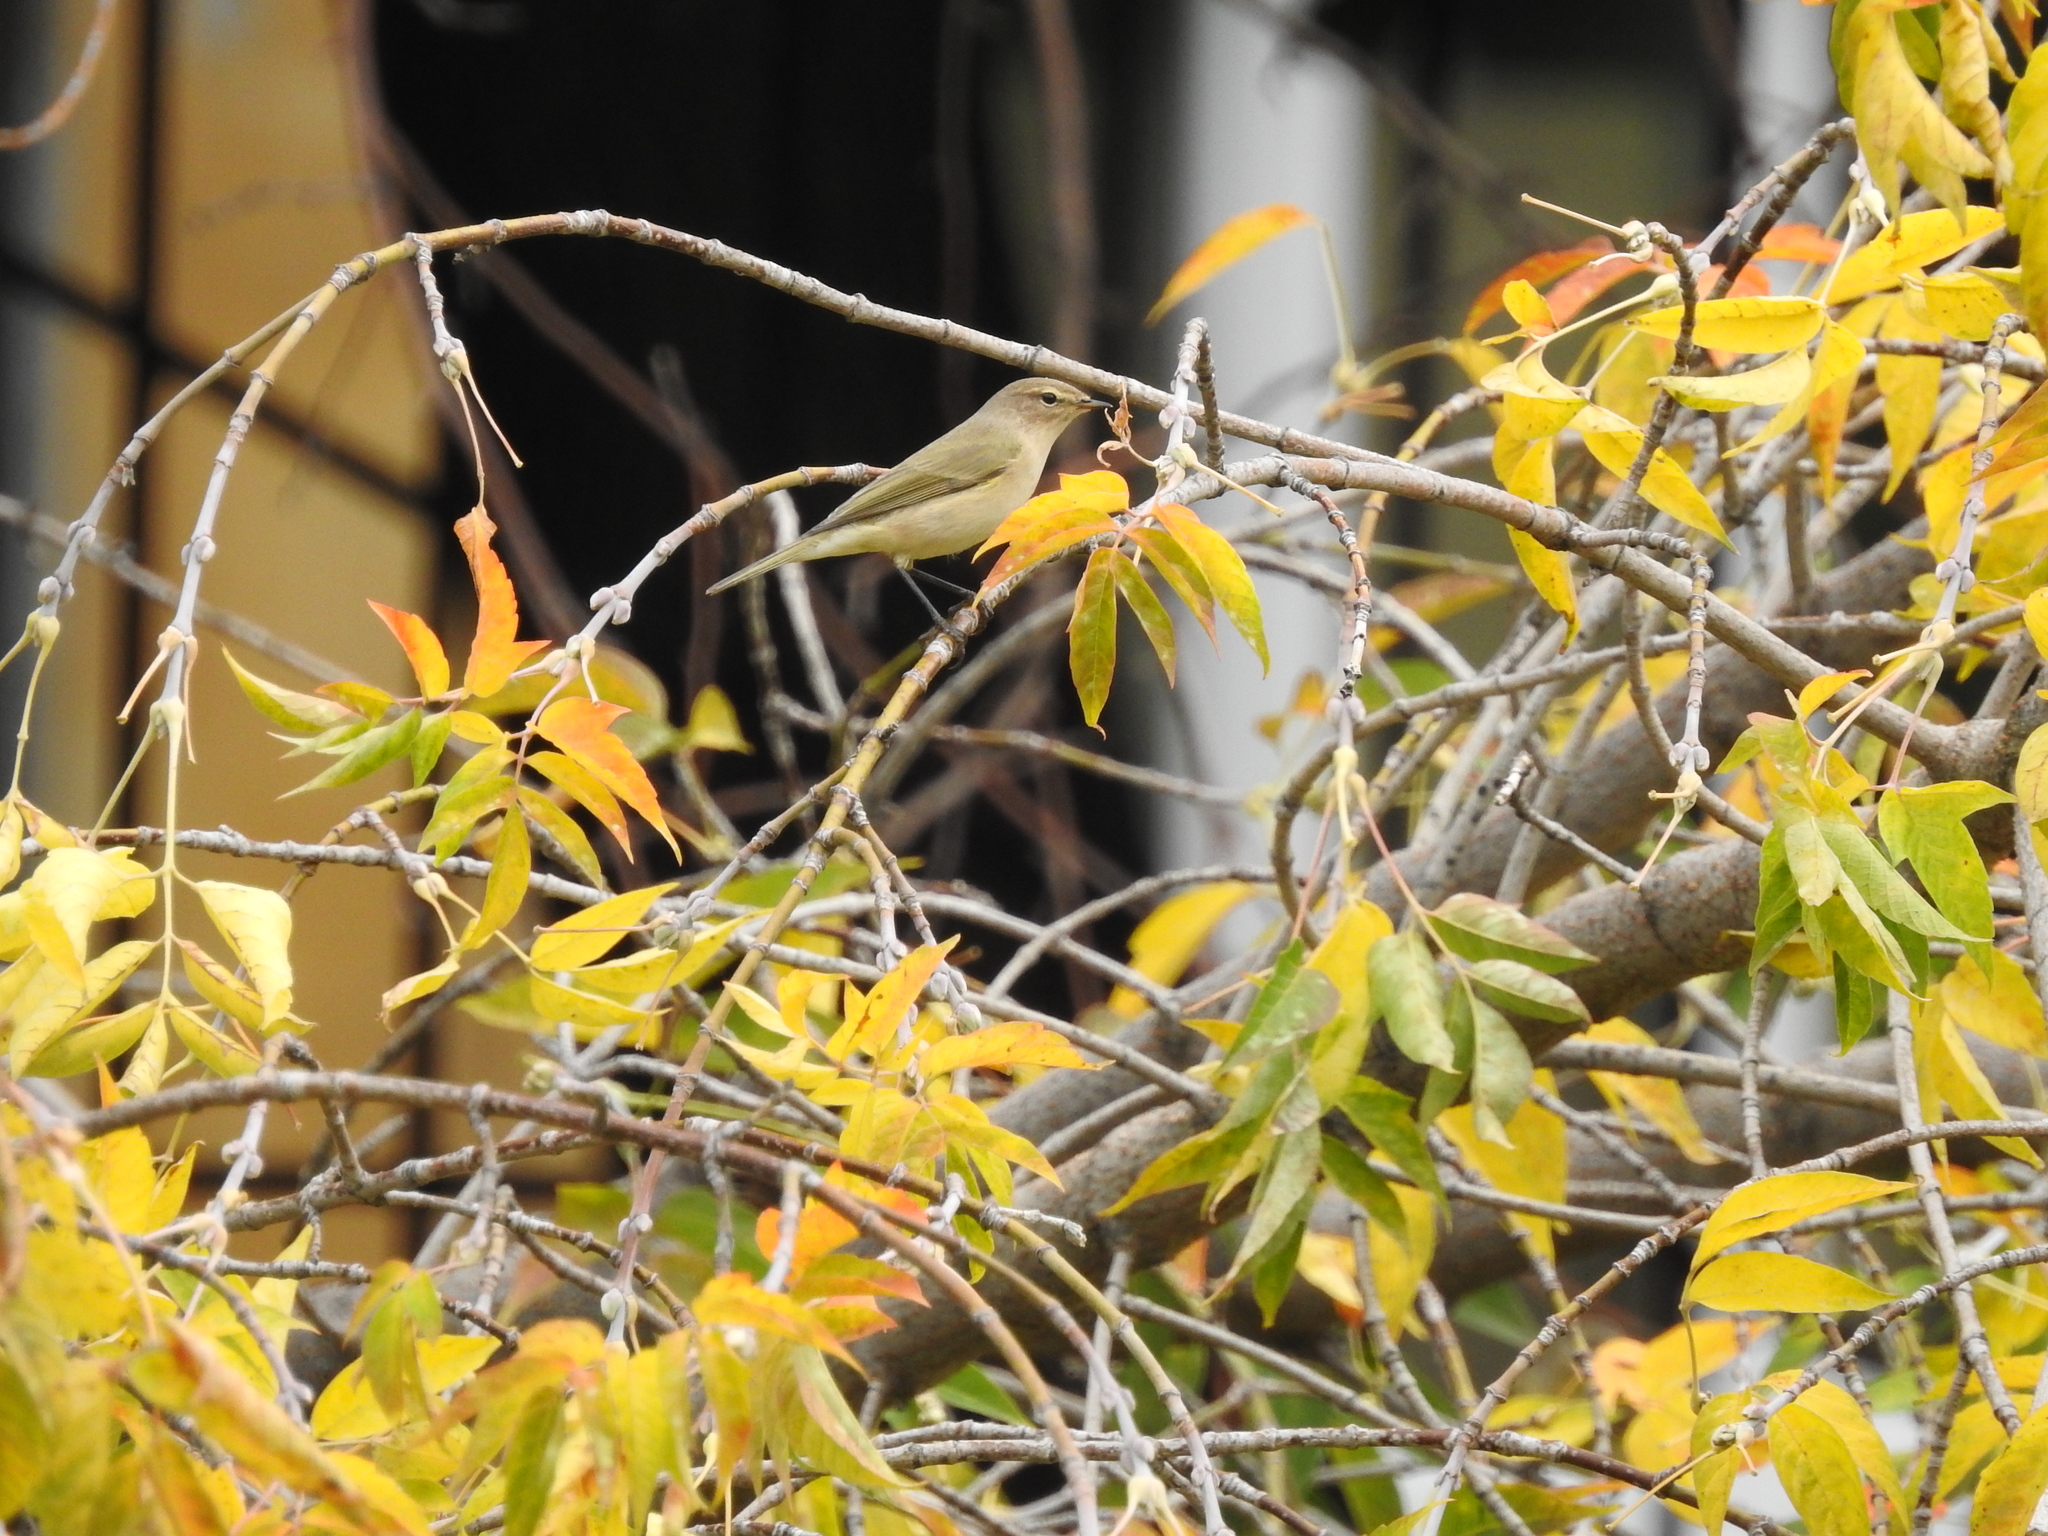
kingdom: Animalia
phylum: Chordata
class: Aves
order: Passeriformes
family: Phylloscopidae
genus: Phylloscopus
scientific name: Phylloscopus collybita
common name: Common chiffchaff
